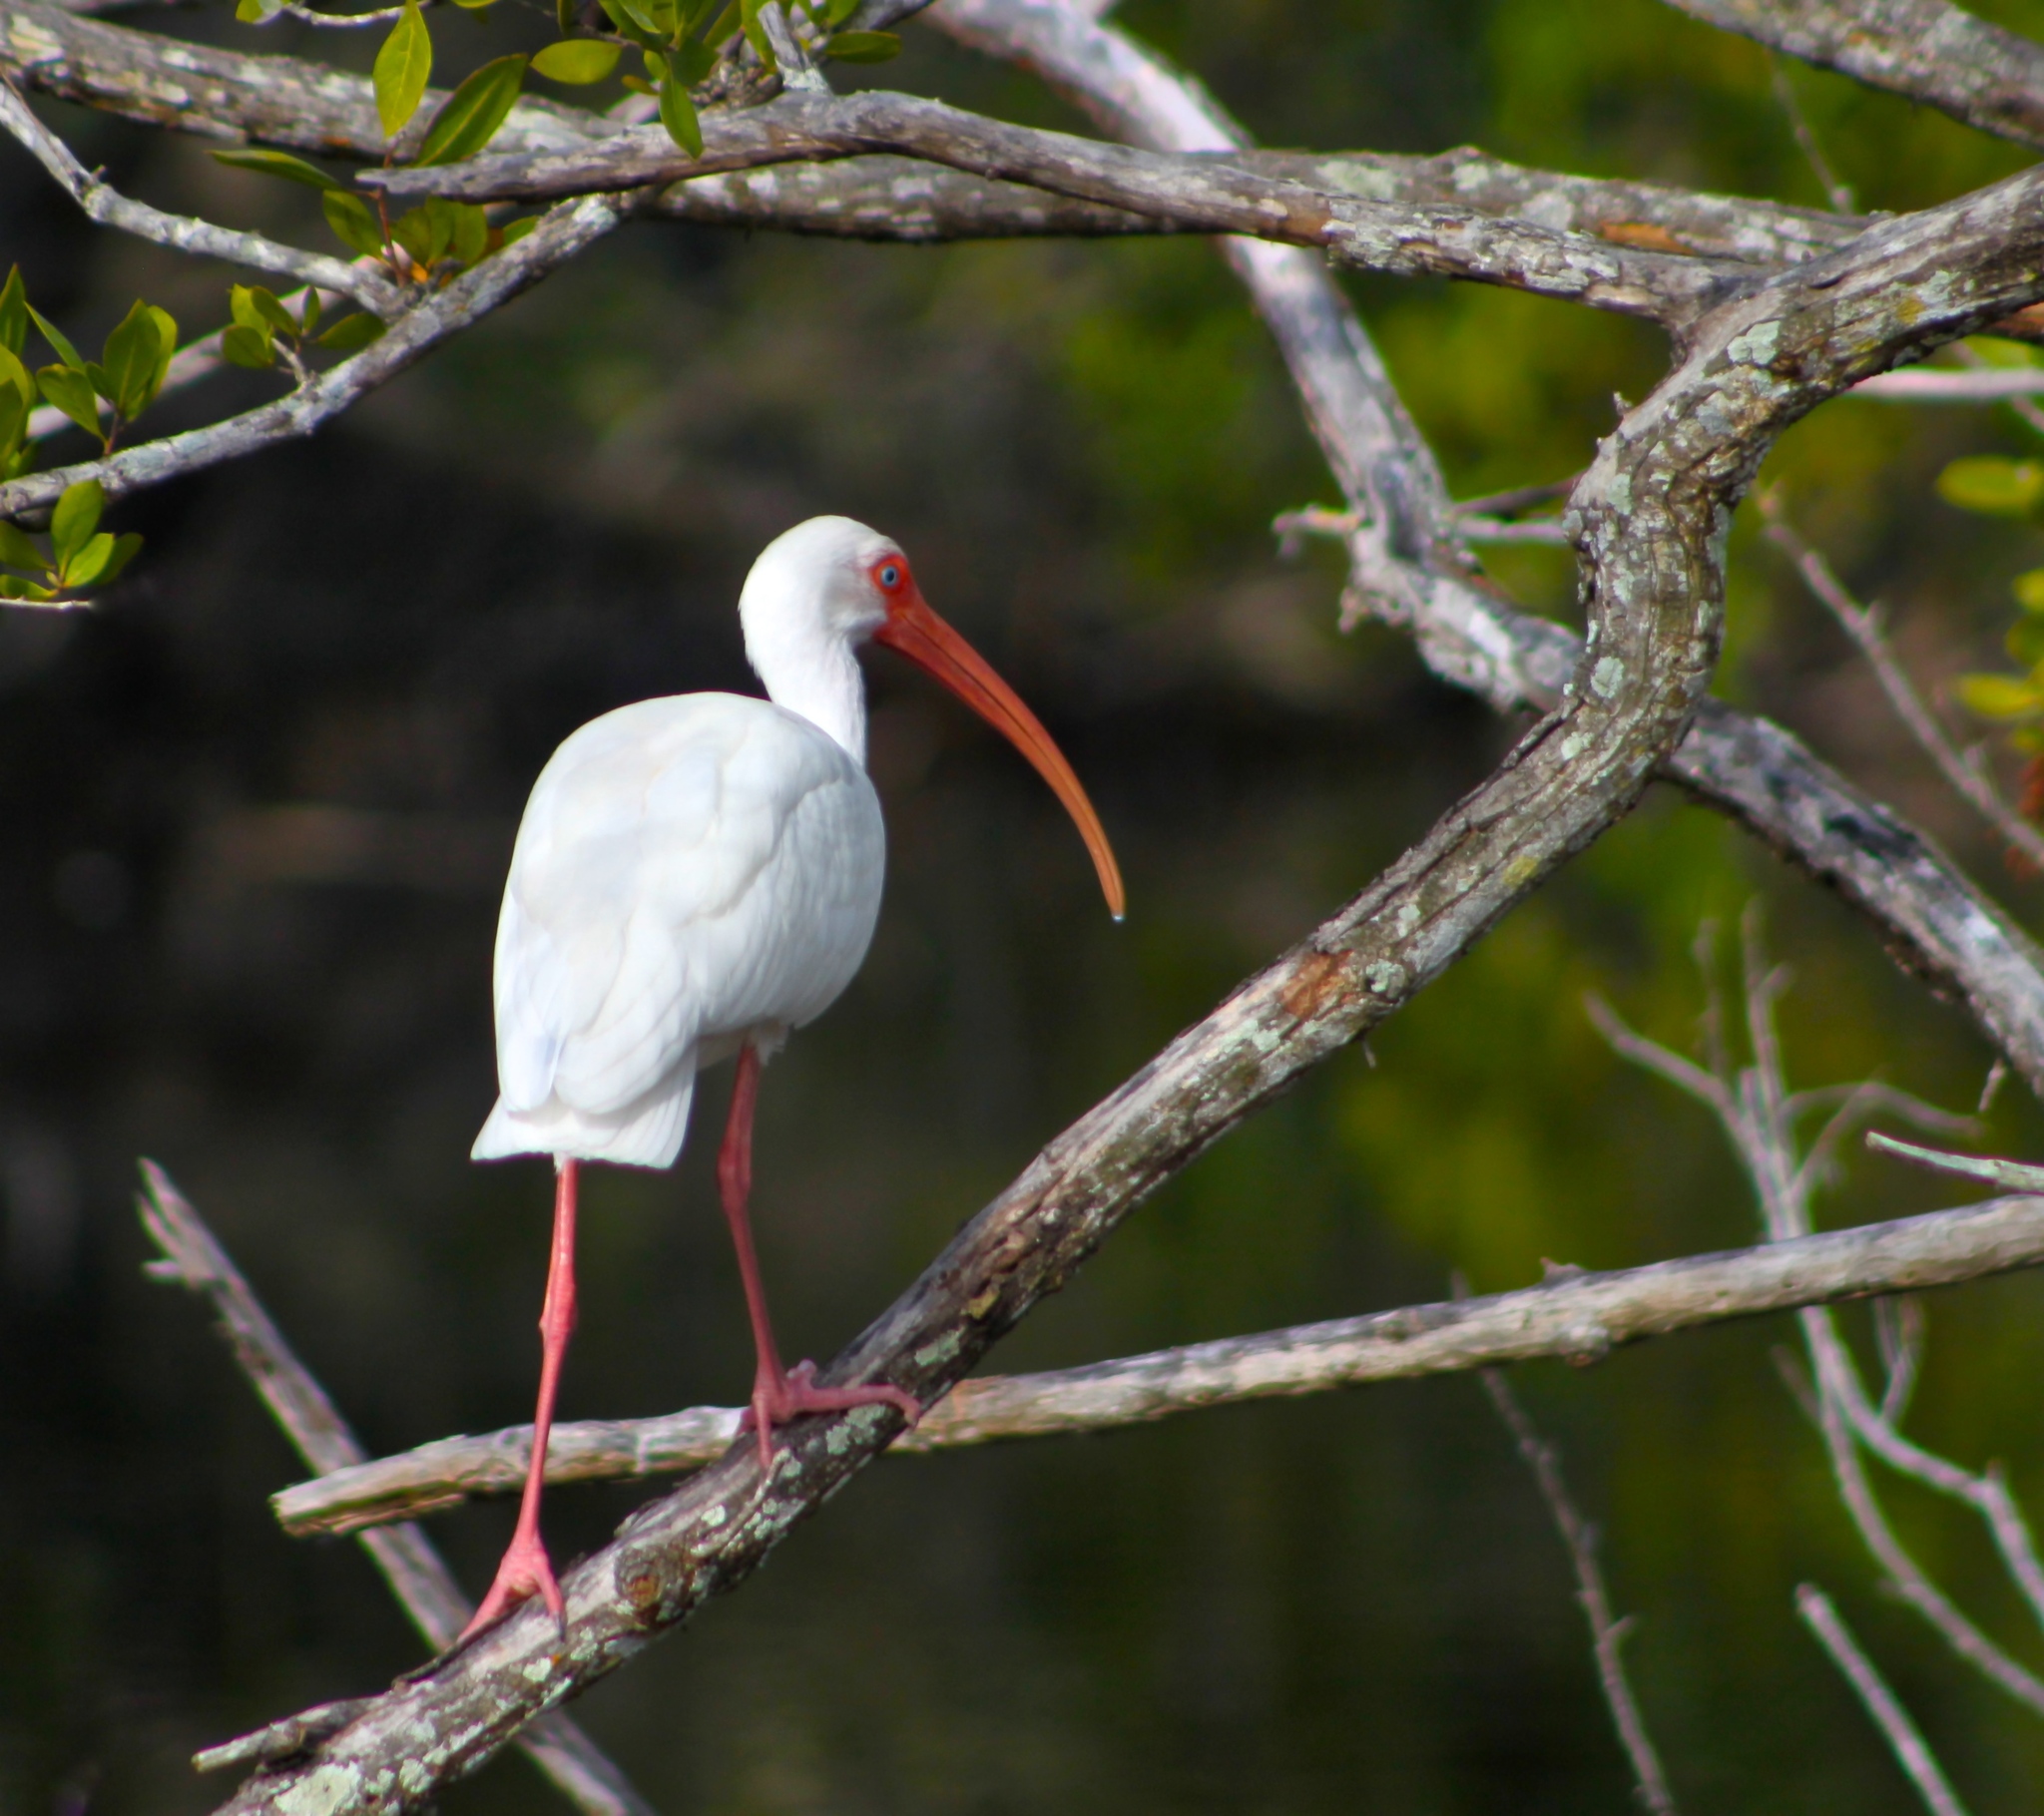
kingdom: Animalia
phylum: Chordata
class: Aves
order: Pelecaniformes
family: Threskiornithidae
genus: Eudocimus
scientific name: Eudocimus albus
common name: White ibis
